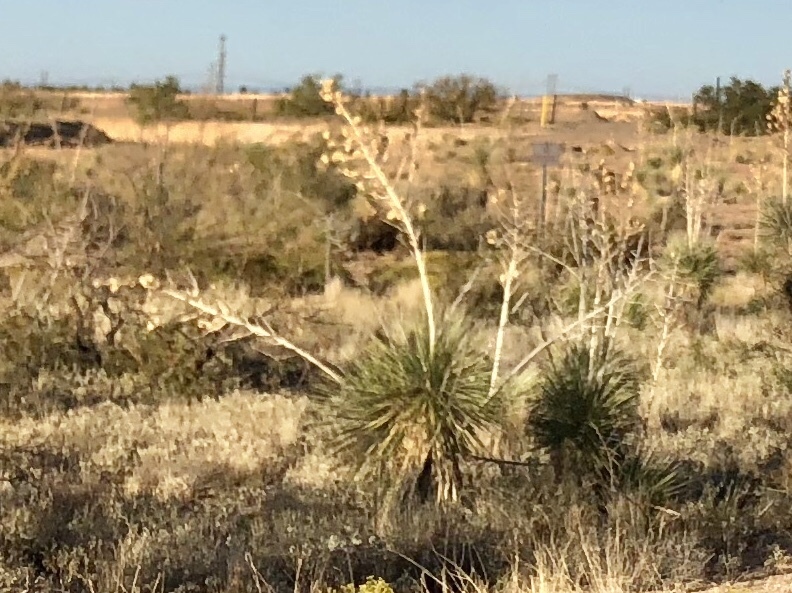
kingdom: Plantae
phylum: Tracheophyta
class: Liliopsida
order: Asparagales
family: Asparagaceae
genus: Yucca
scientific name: Yucca elata
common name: Palmella
